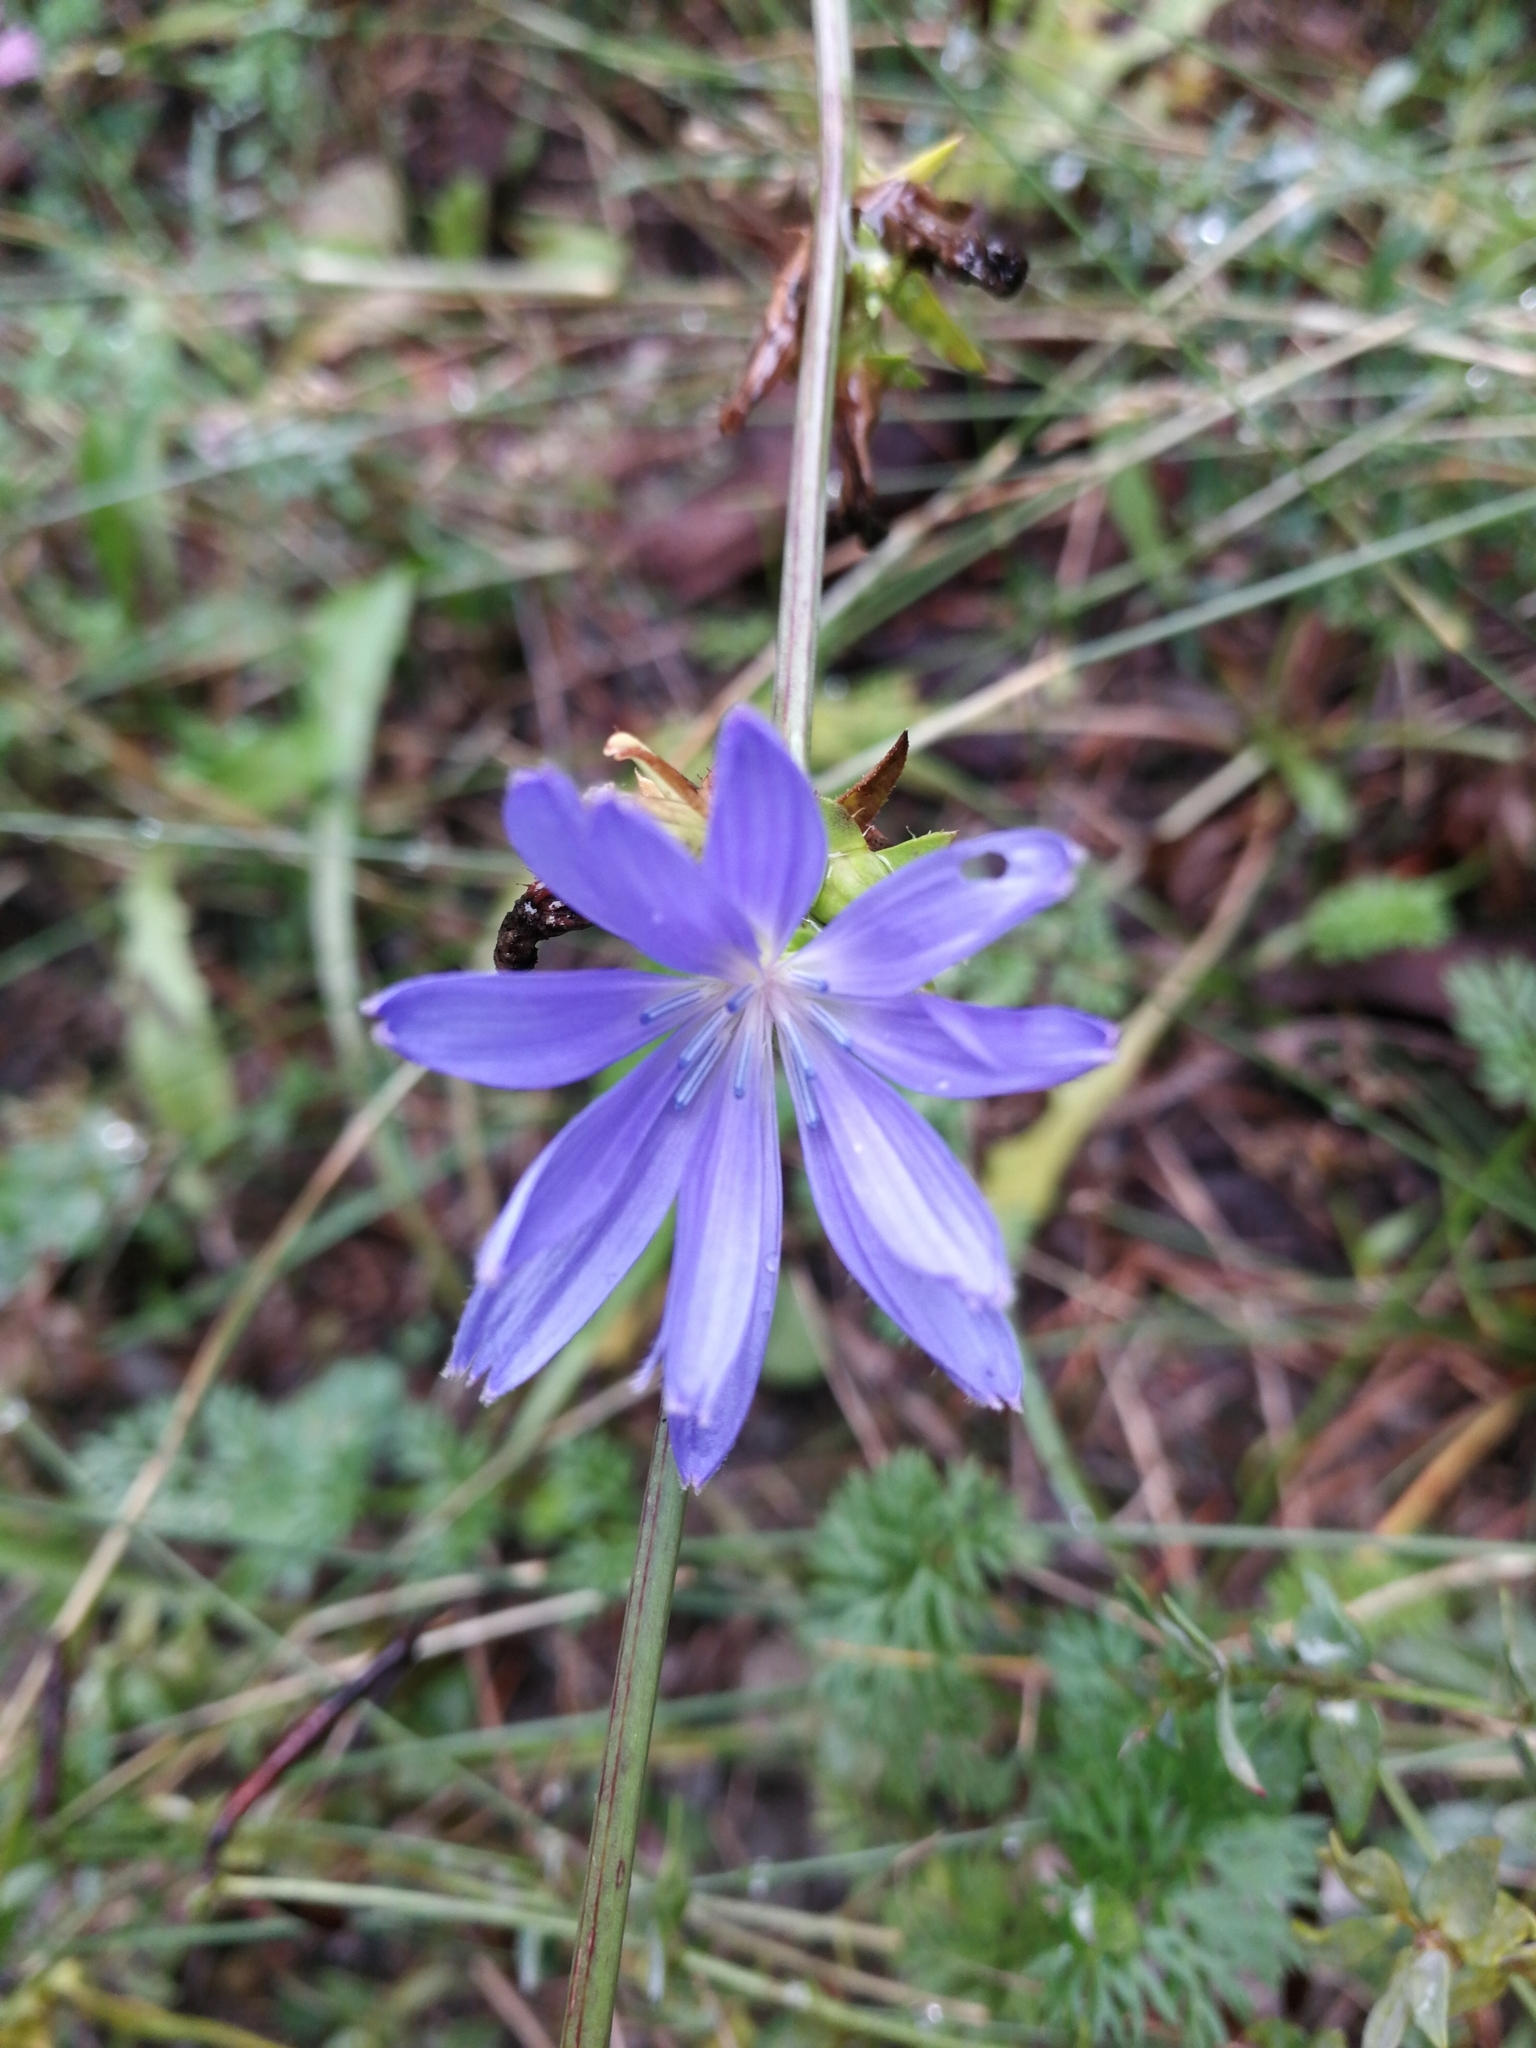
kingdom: Plantae
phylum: Tracheophyta
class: Magnoliopsida
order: Asterales
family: Asteraceae
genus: Cichorium
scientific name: Cichorium intybus
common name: Chicory
